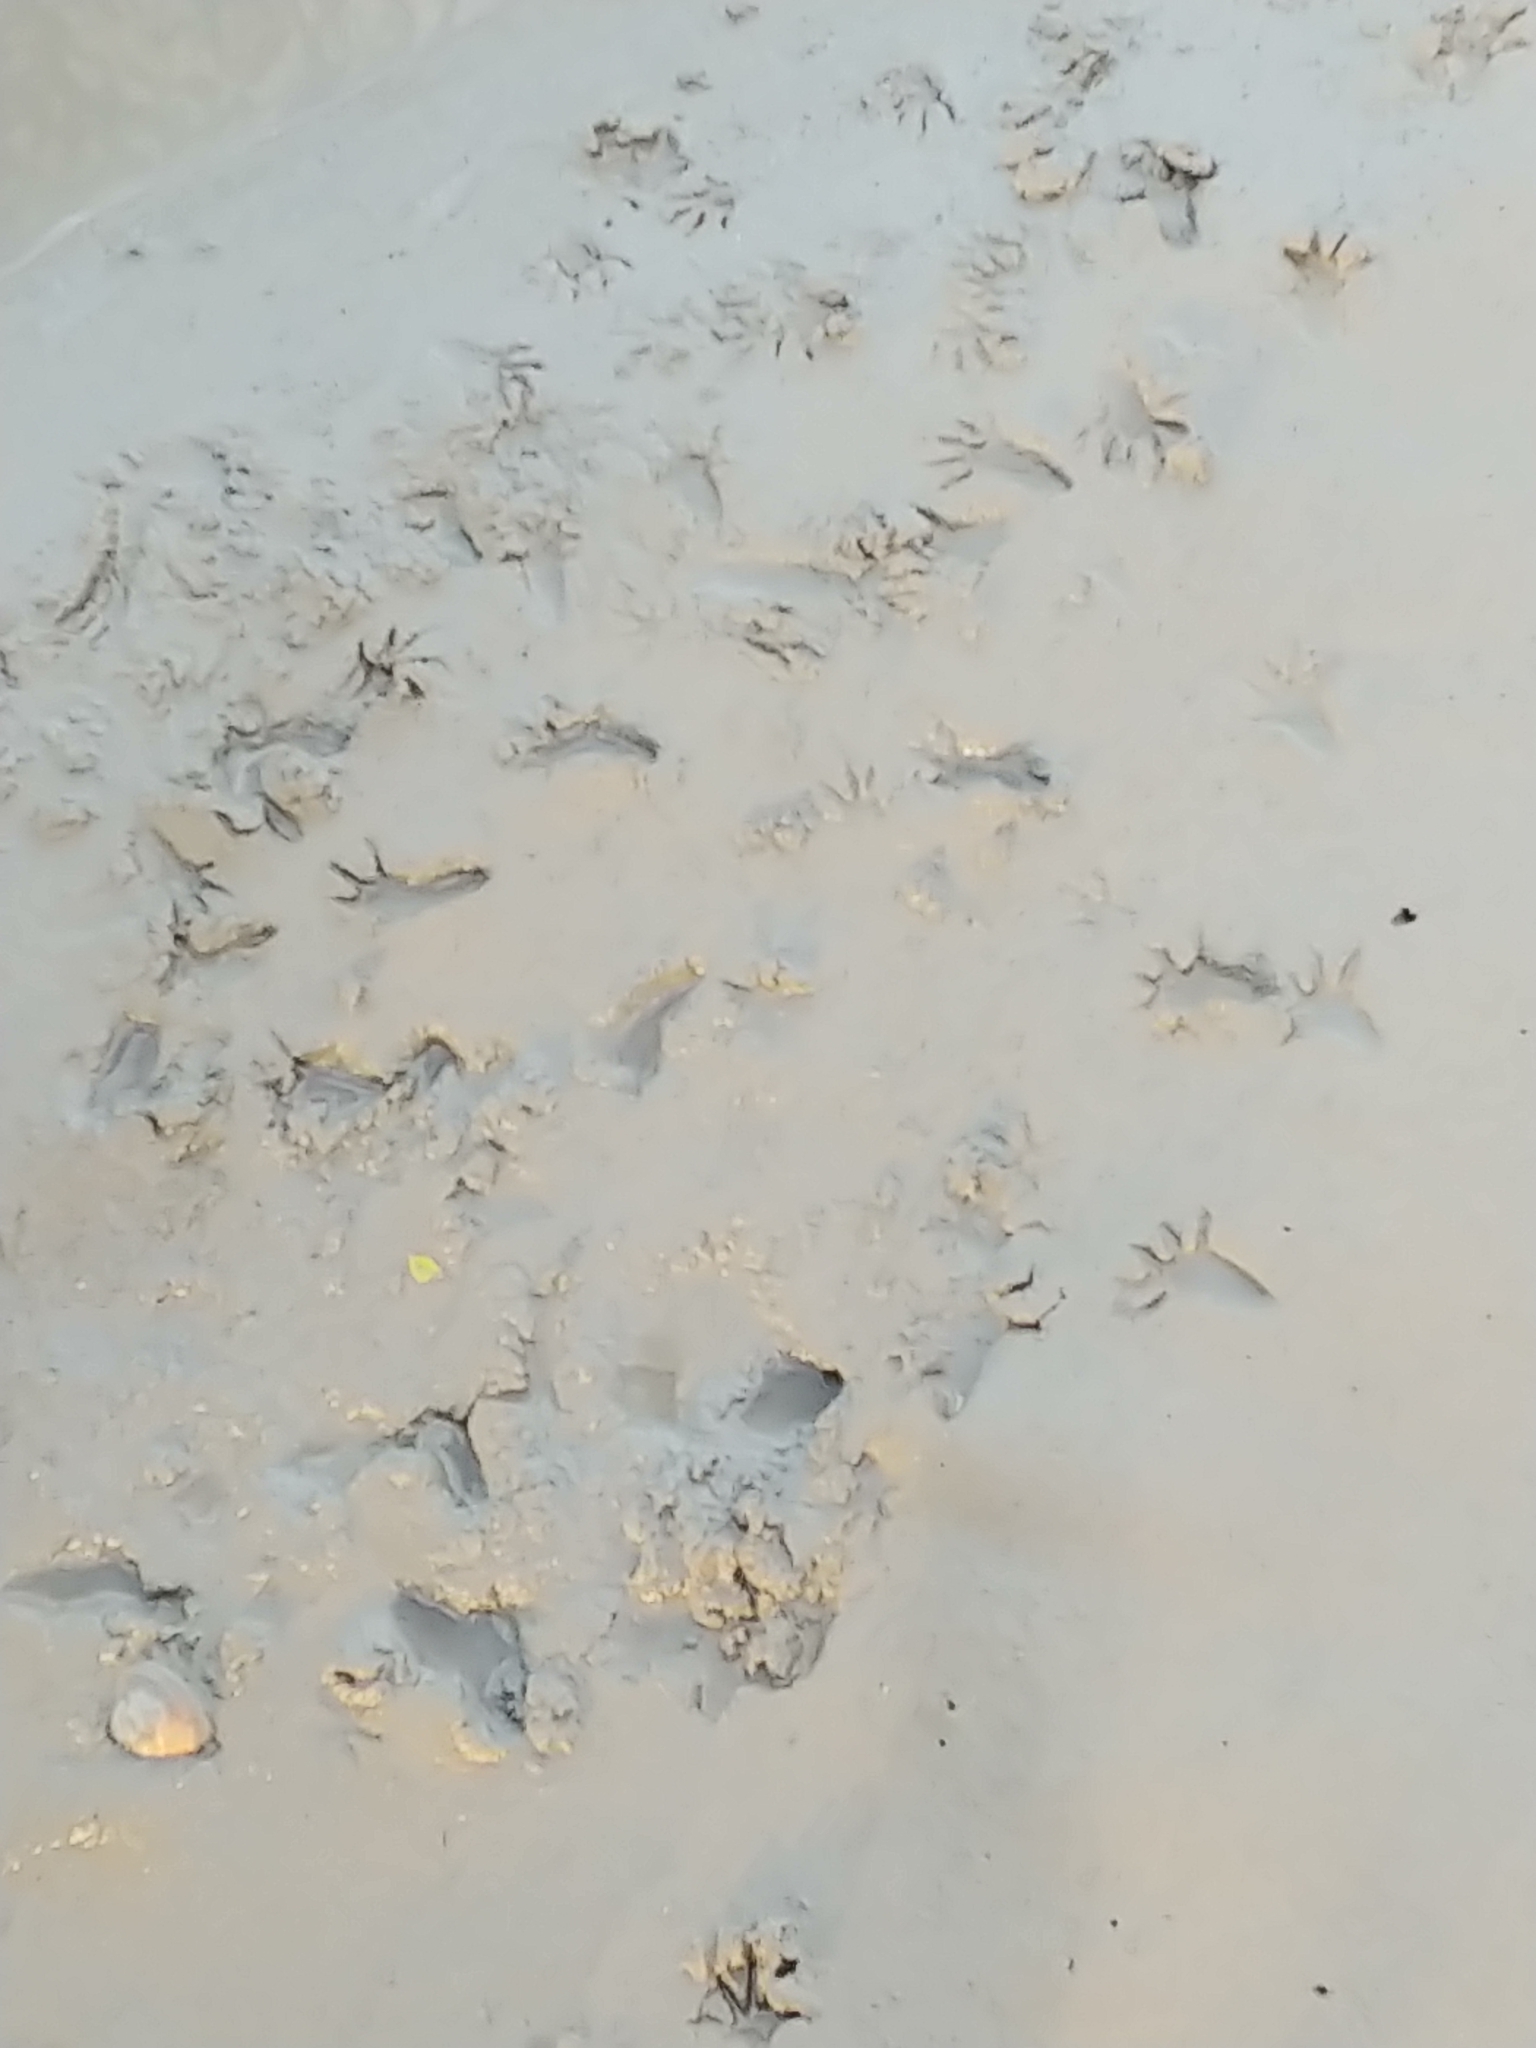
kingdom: Animalia
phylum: Chordata
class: Mammalia
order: Carnivora
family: Procyonidae
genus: Procyon
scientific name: Procyon lotor
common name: Raccoon
